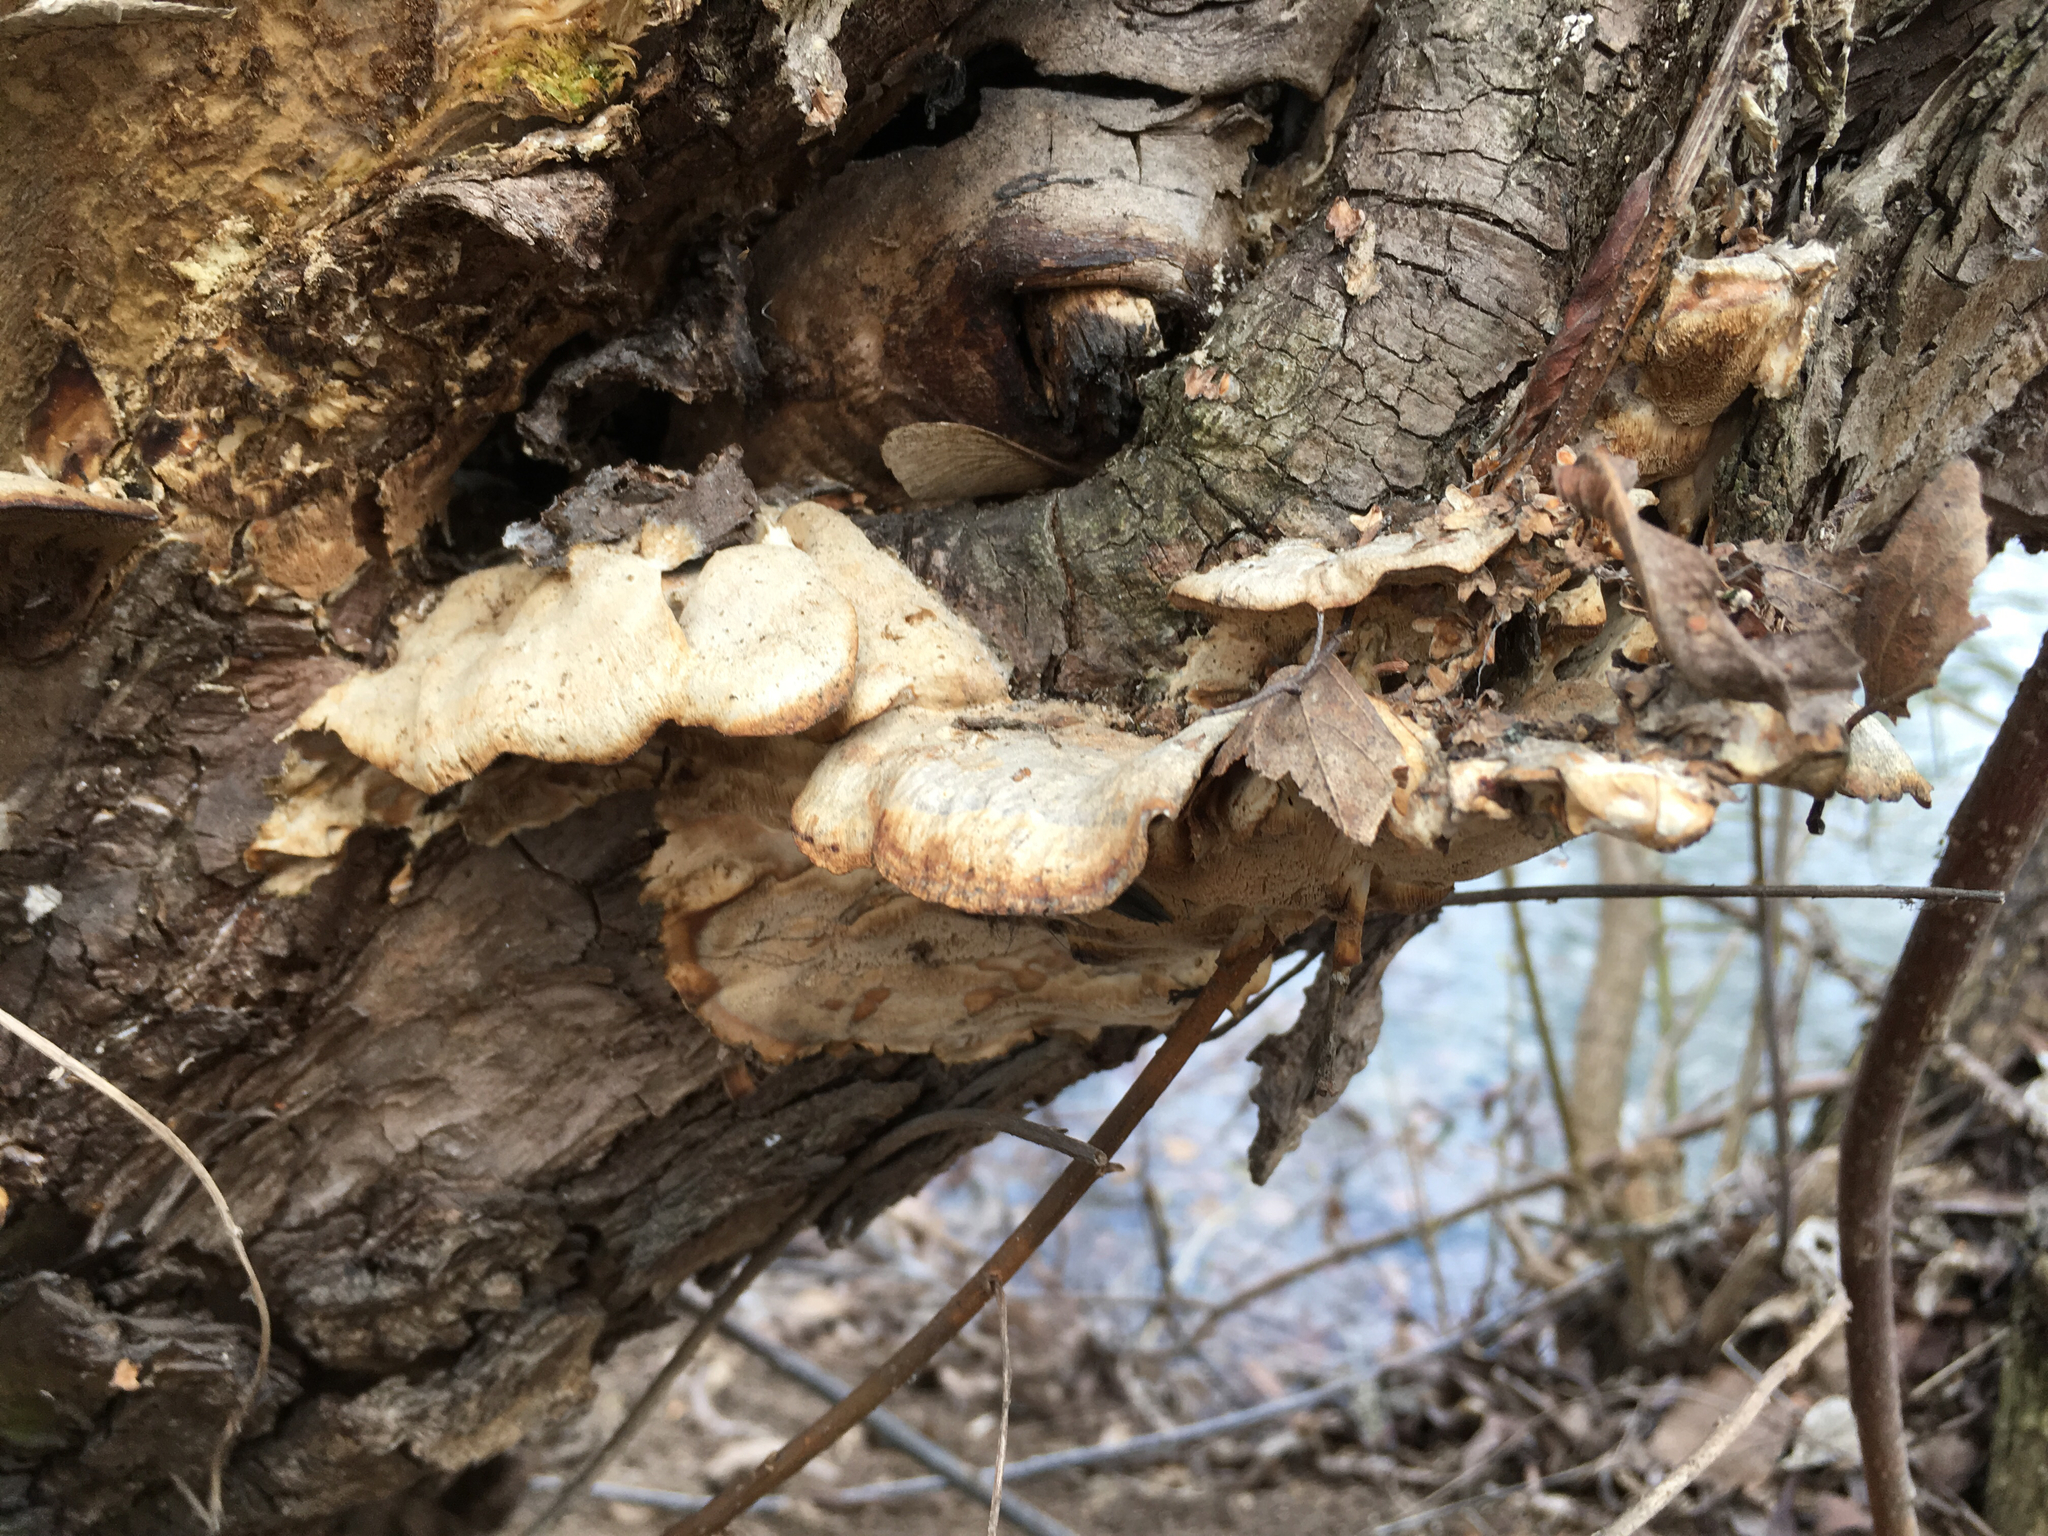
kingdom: Fungi
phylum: Basidiomycota
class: Agaricomycetes
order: Polyporales
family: Phanerochaetaceae
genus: Bjerkandera
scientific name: Bjerkandera adusta
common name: Smoky bracket
